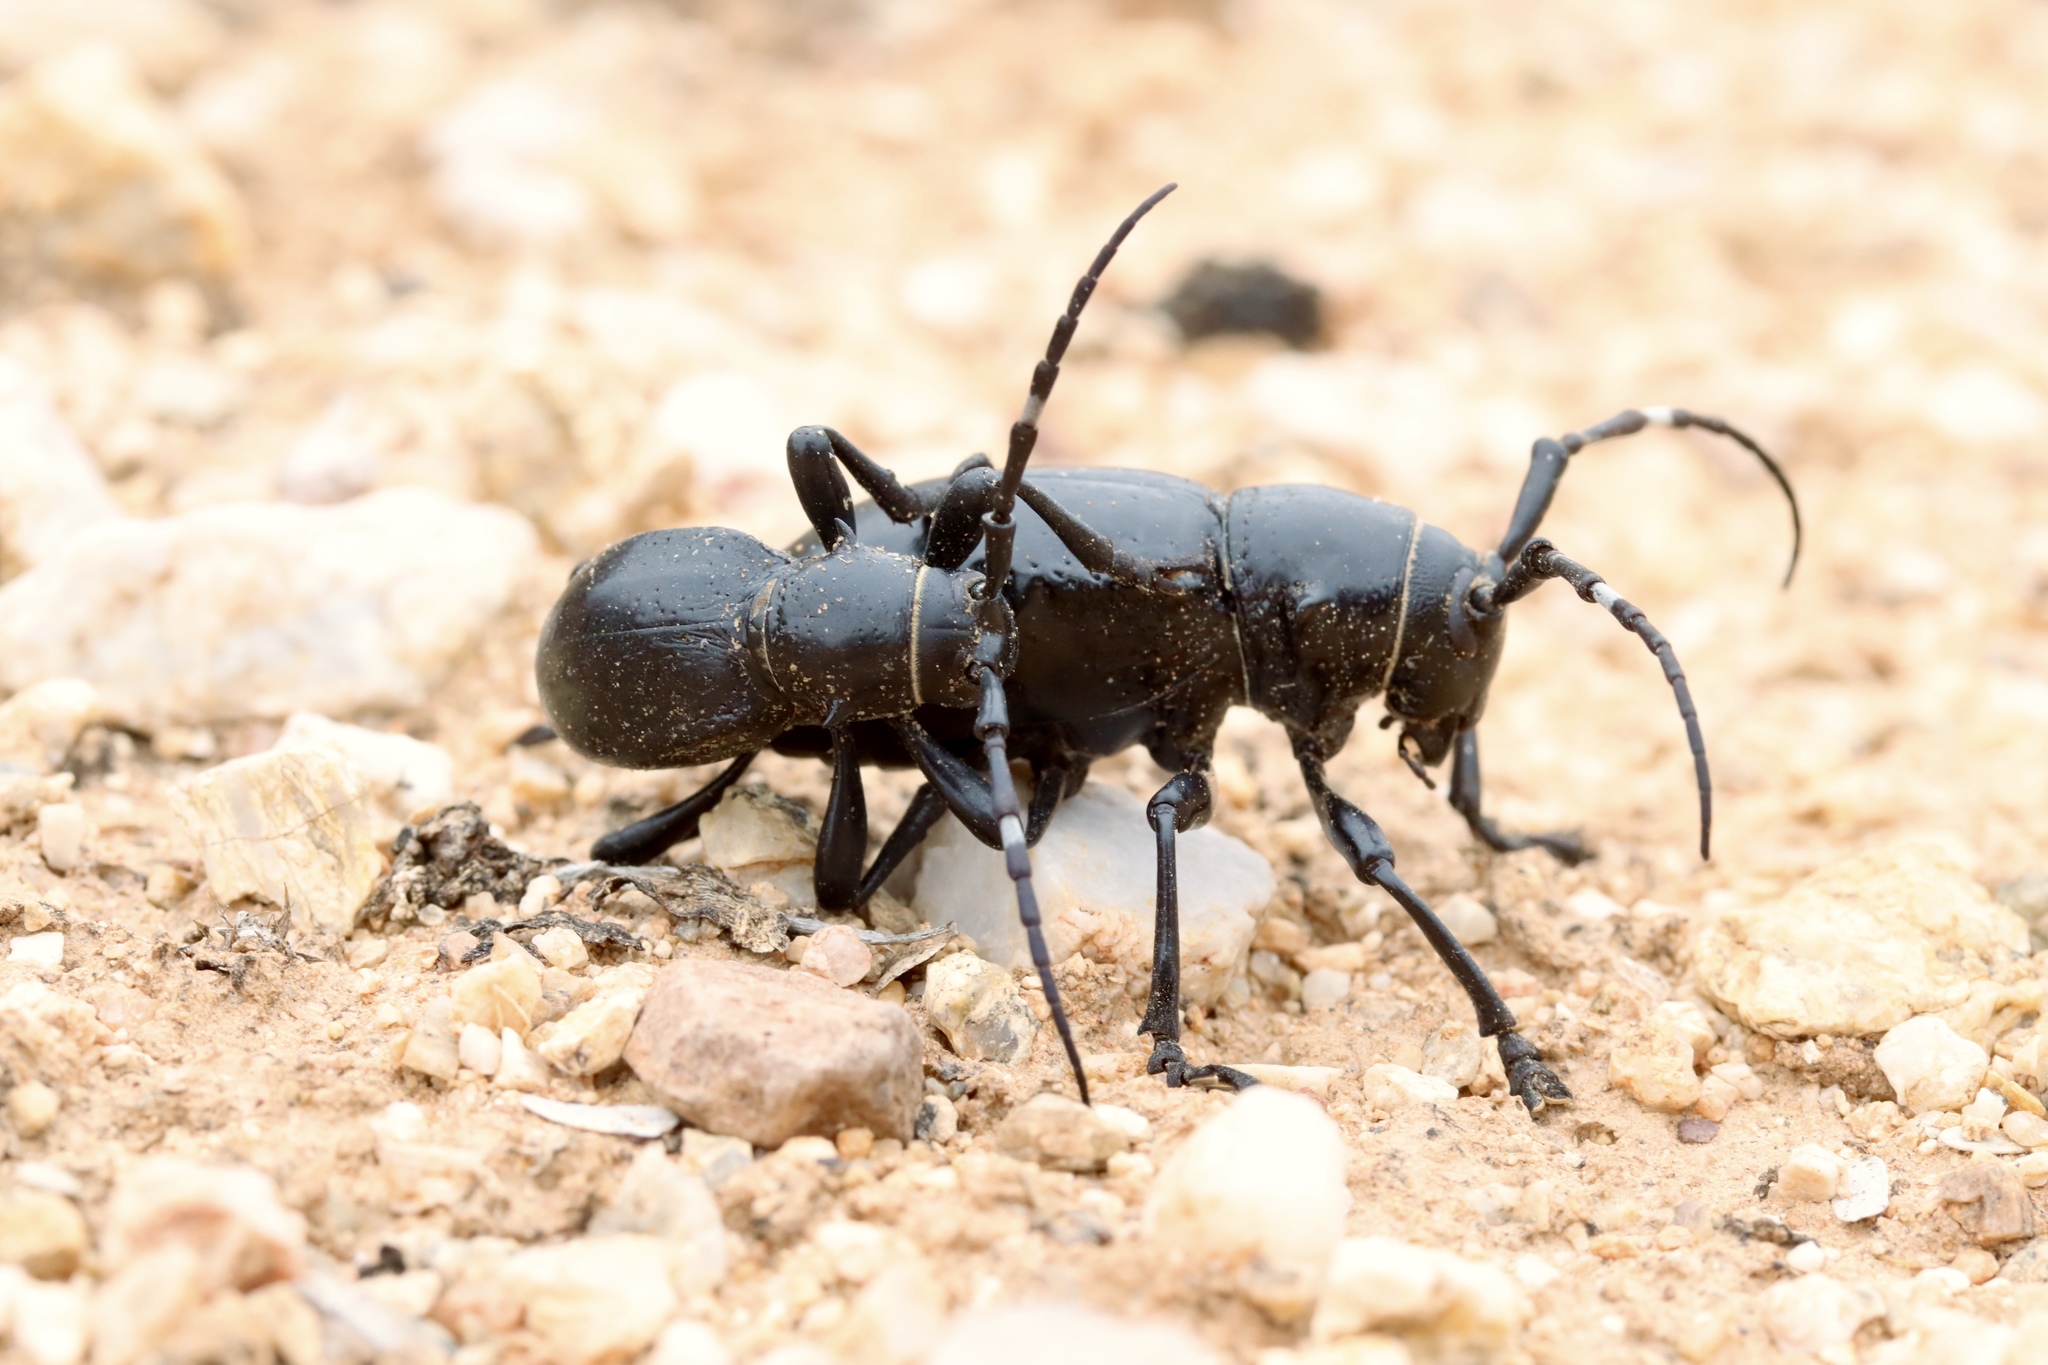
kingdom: Animalia
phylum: Arthropoda
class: Insecta
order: Coleoptera
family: Cerambycidae
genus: Moneilema
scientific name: Moneilema gigas
